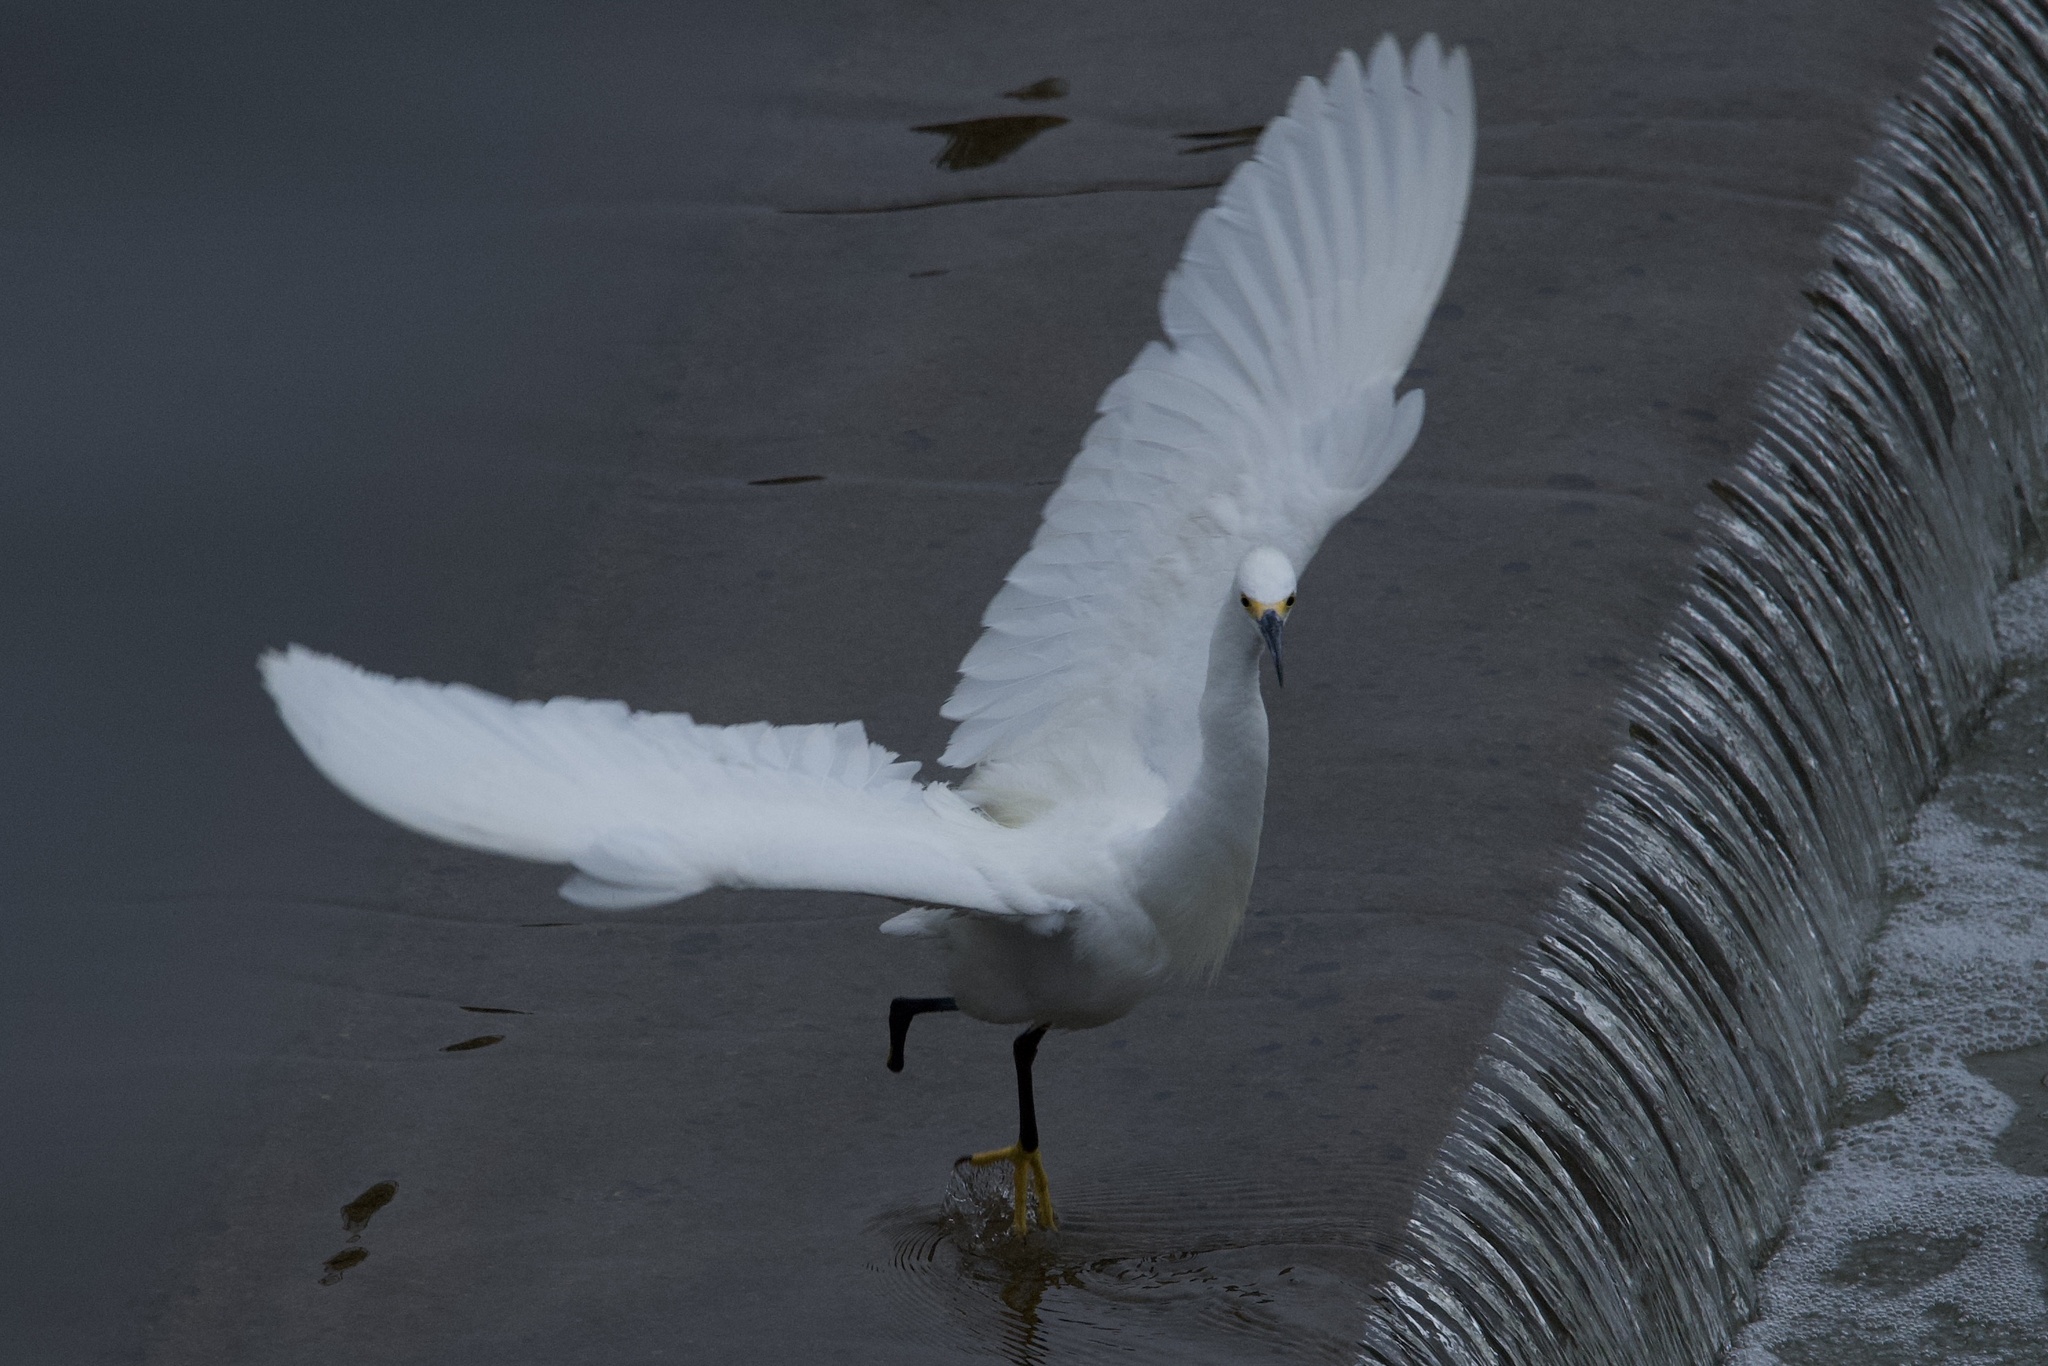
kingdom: Animalia
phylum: Chordata
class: Aves
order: Pelecaniformes
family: Ardeidae
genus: Egretta
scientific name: Egretta thula
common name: Snowy egret
